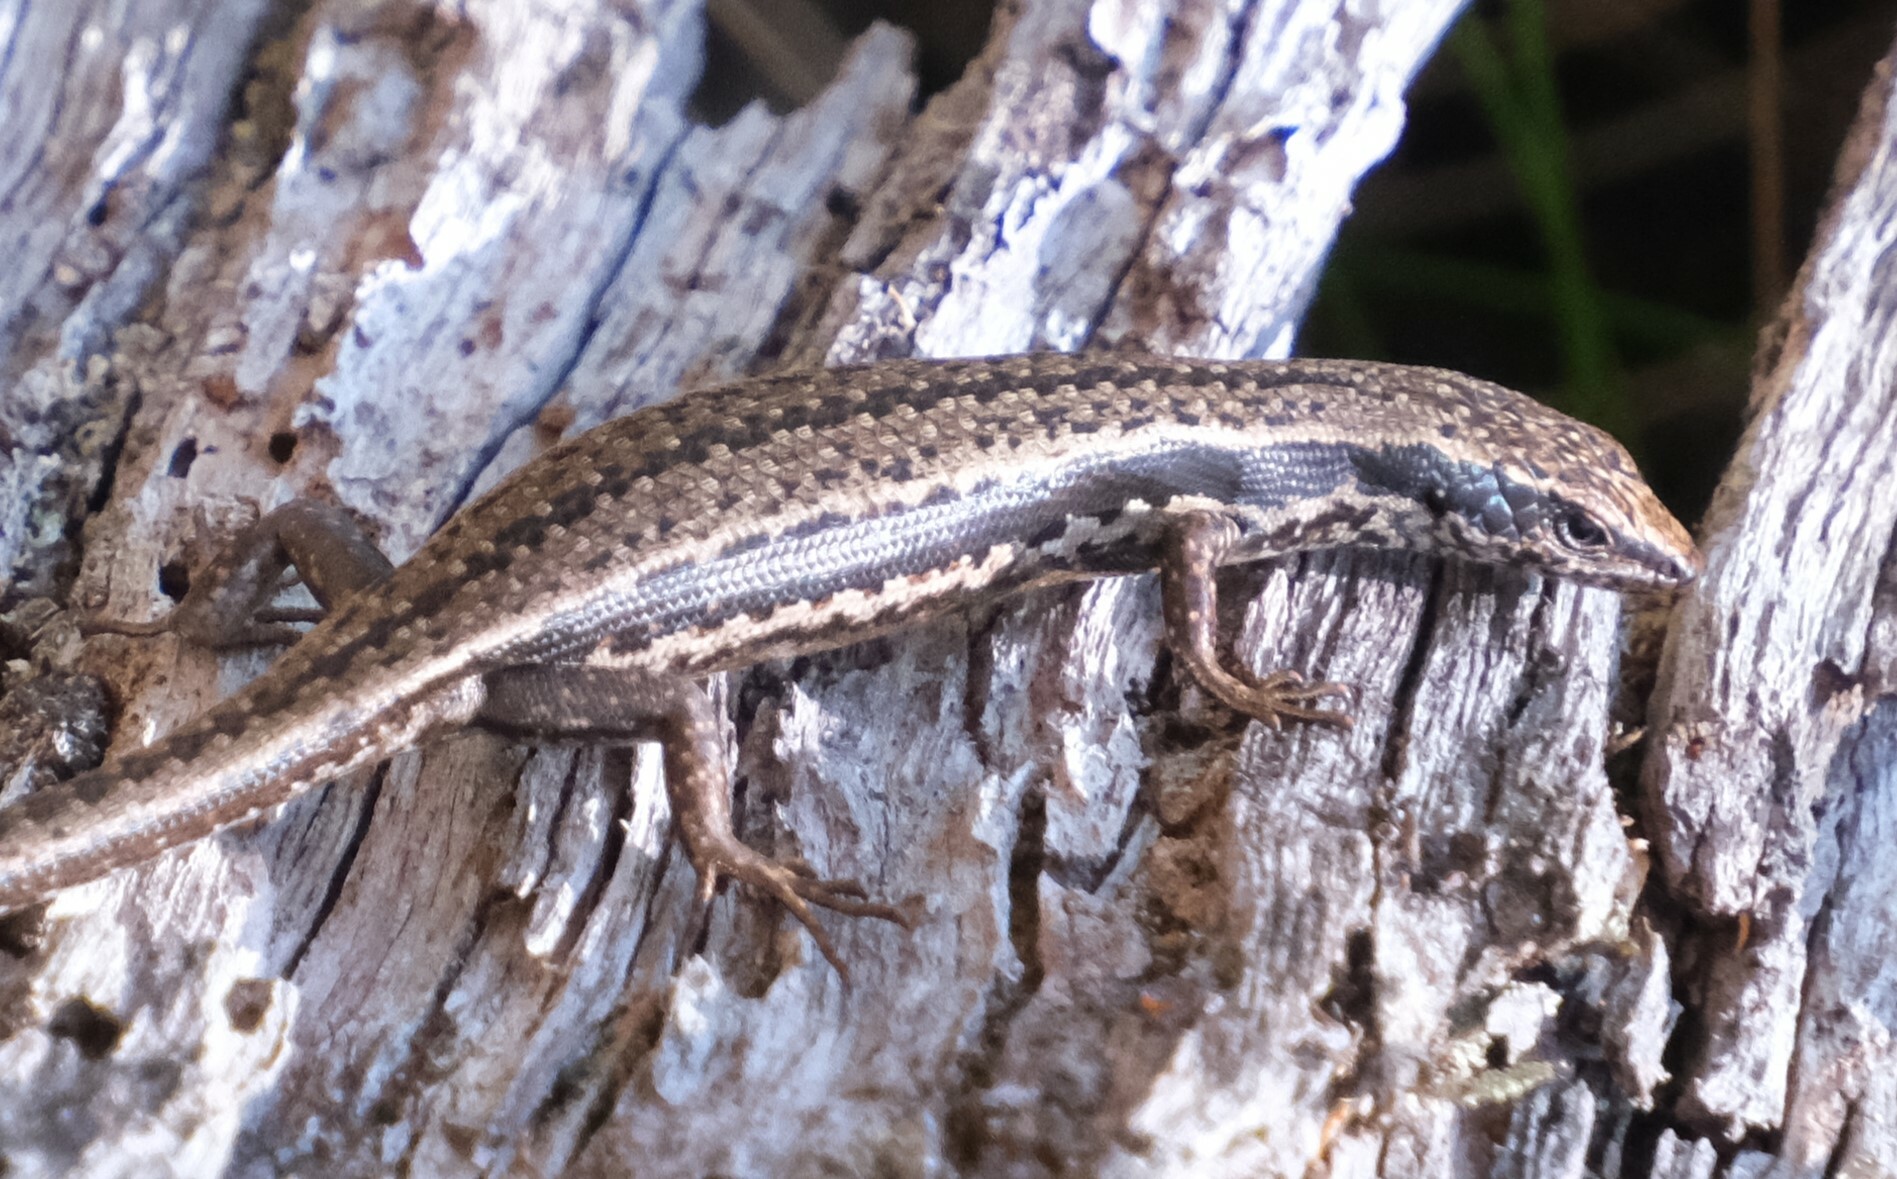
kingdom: Animalia
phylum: Chordata
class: Squamata
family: Scincidae
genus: Carinascincus
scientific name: Carinascincus pretiosus
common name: Agile cool-skink
